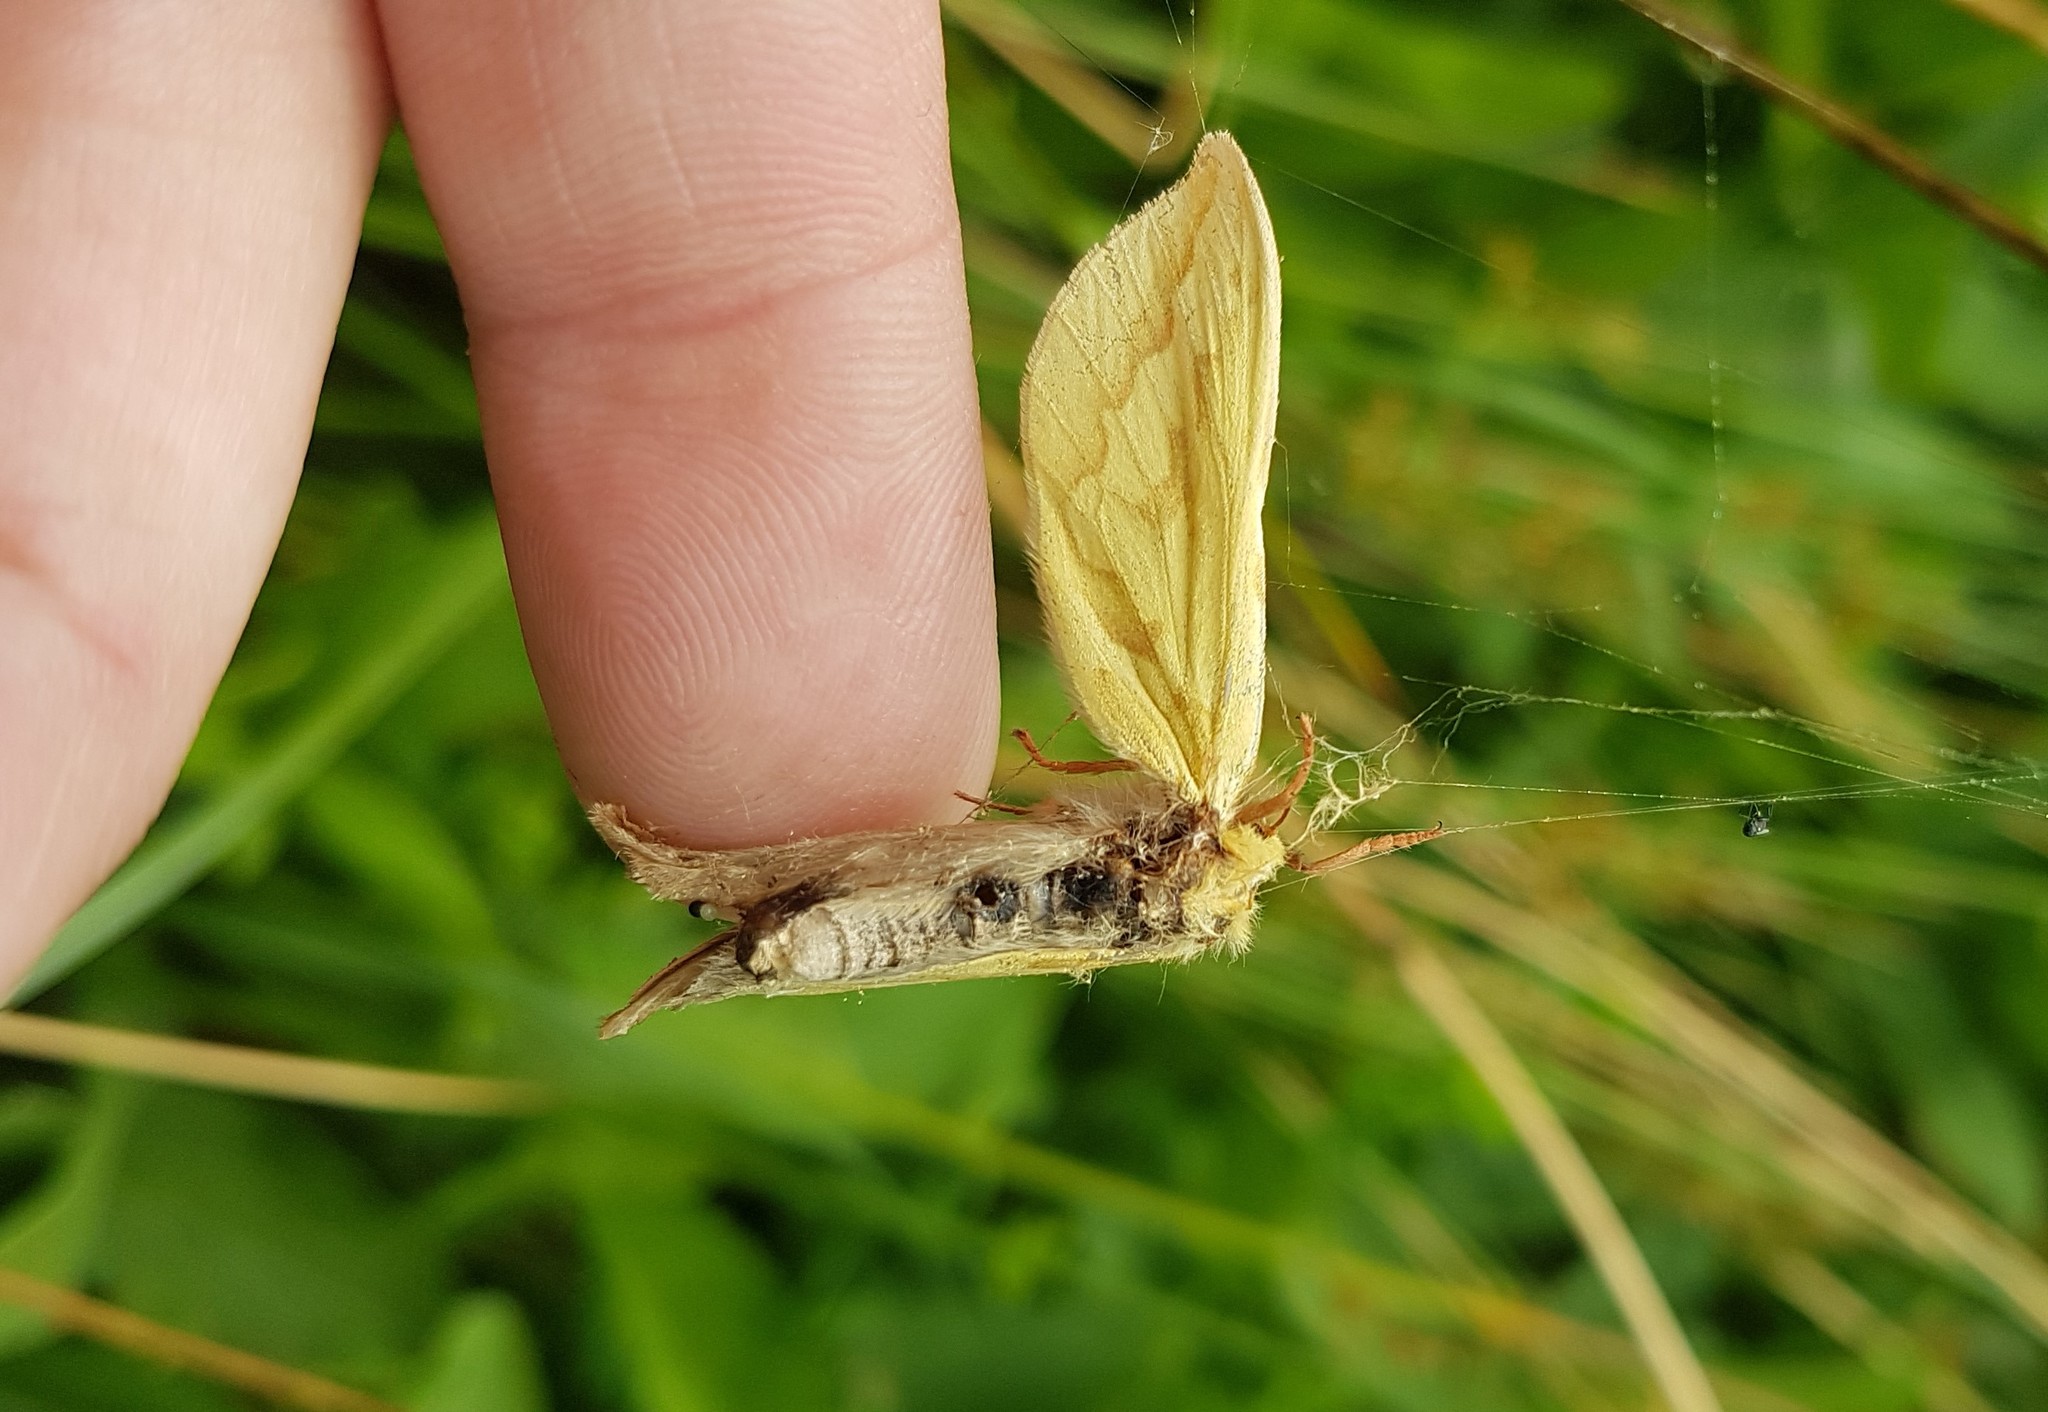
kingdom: Animalia
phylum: Arthropoda
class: Insecta
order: Lepidoptera
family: Hepialidae
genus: Hepialus
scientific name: Hepialus humuli
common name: Ghost moth
